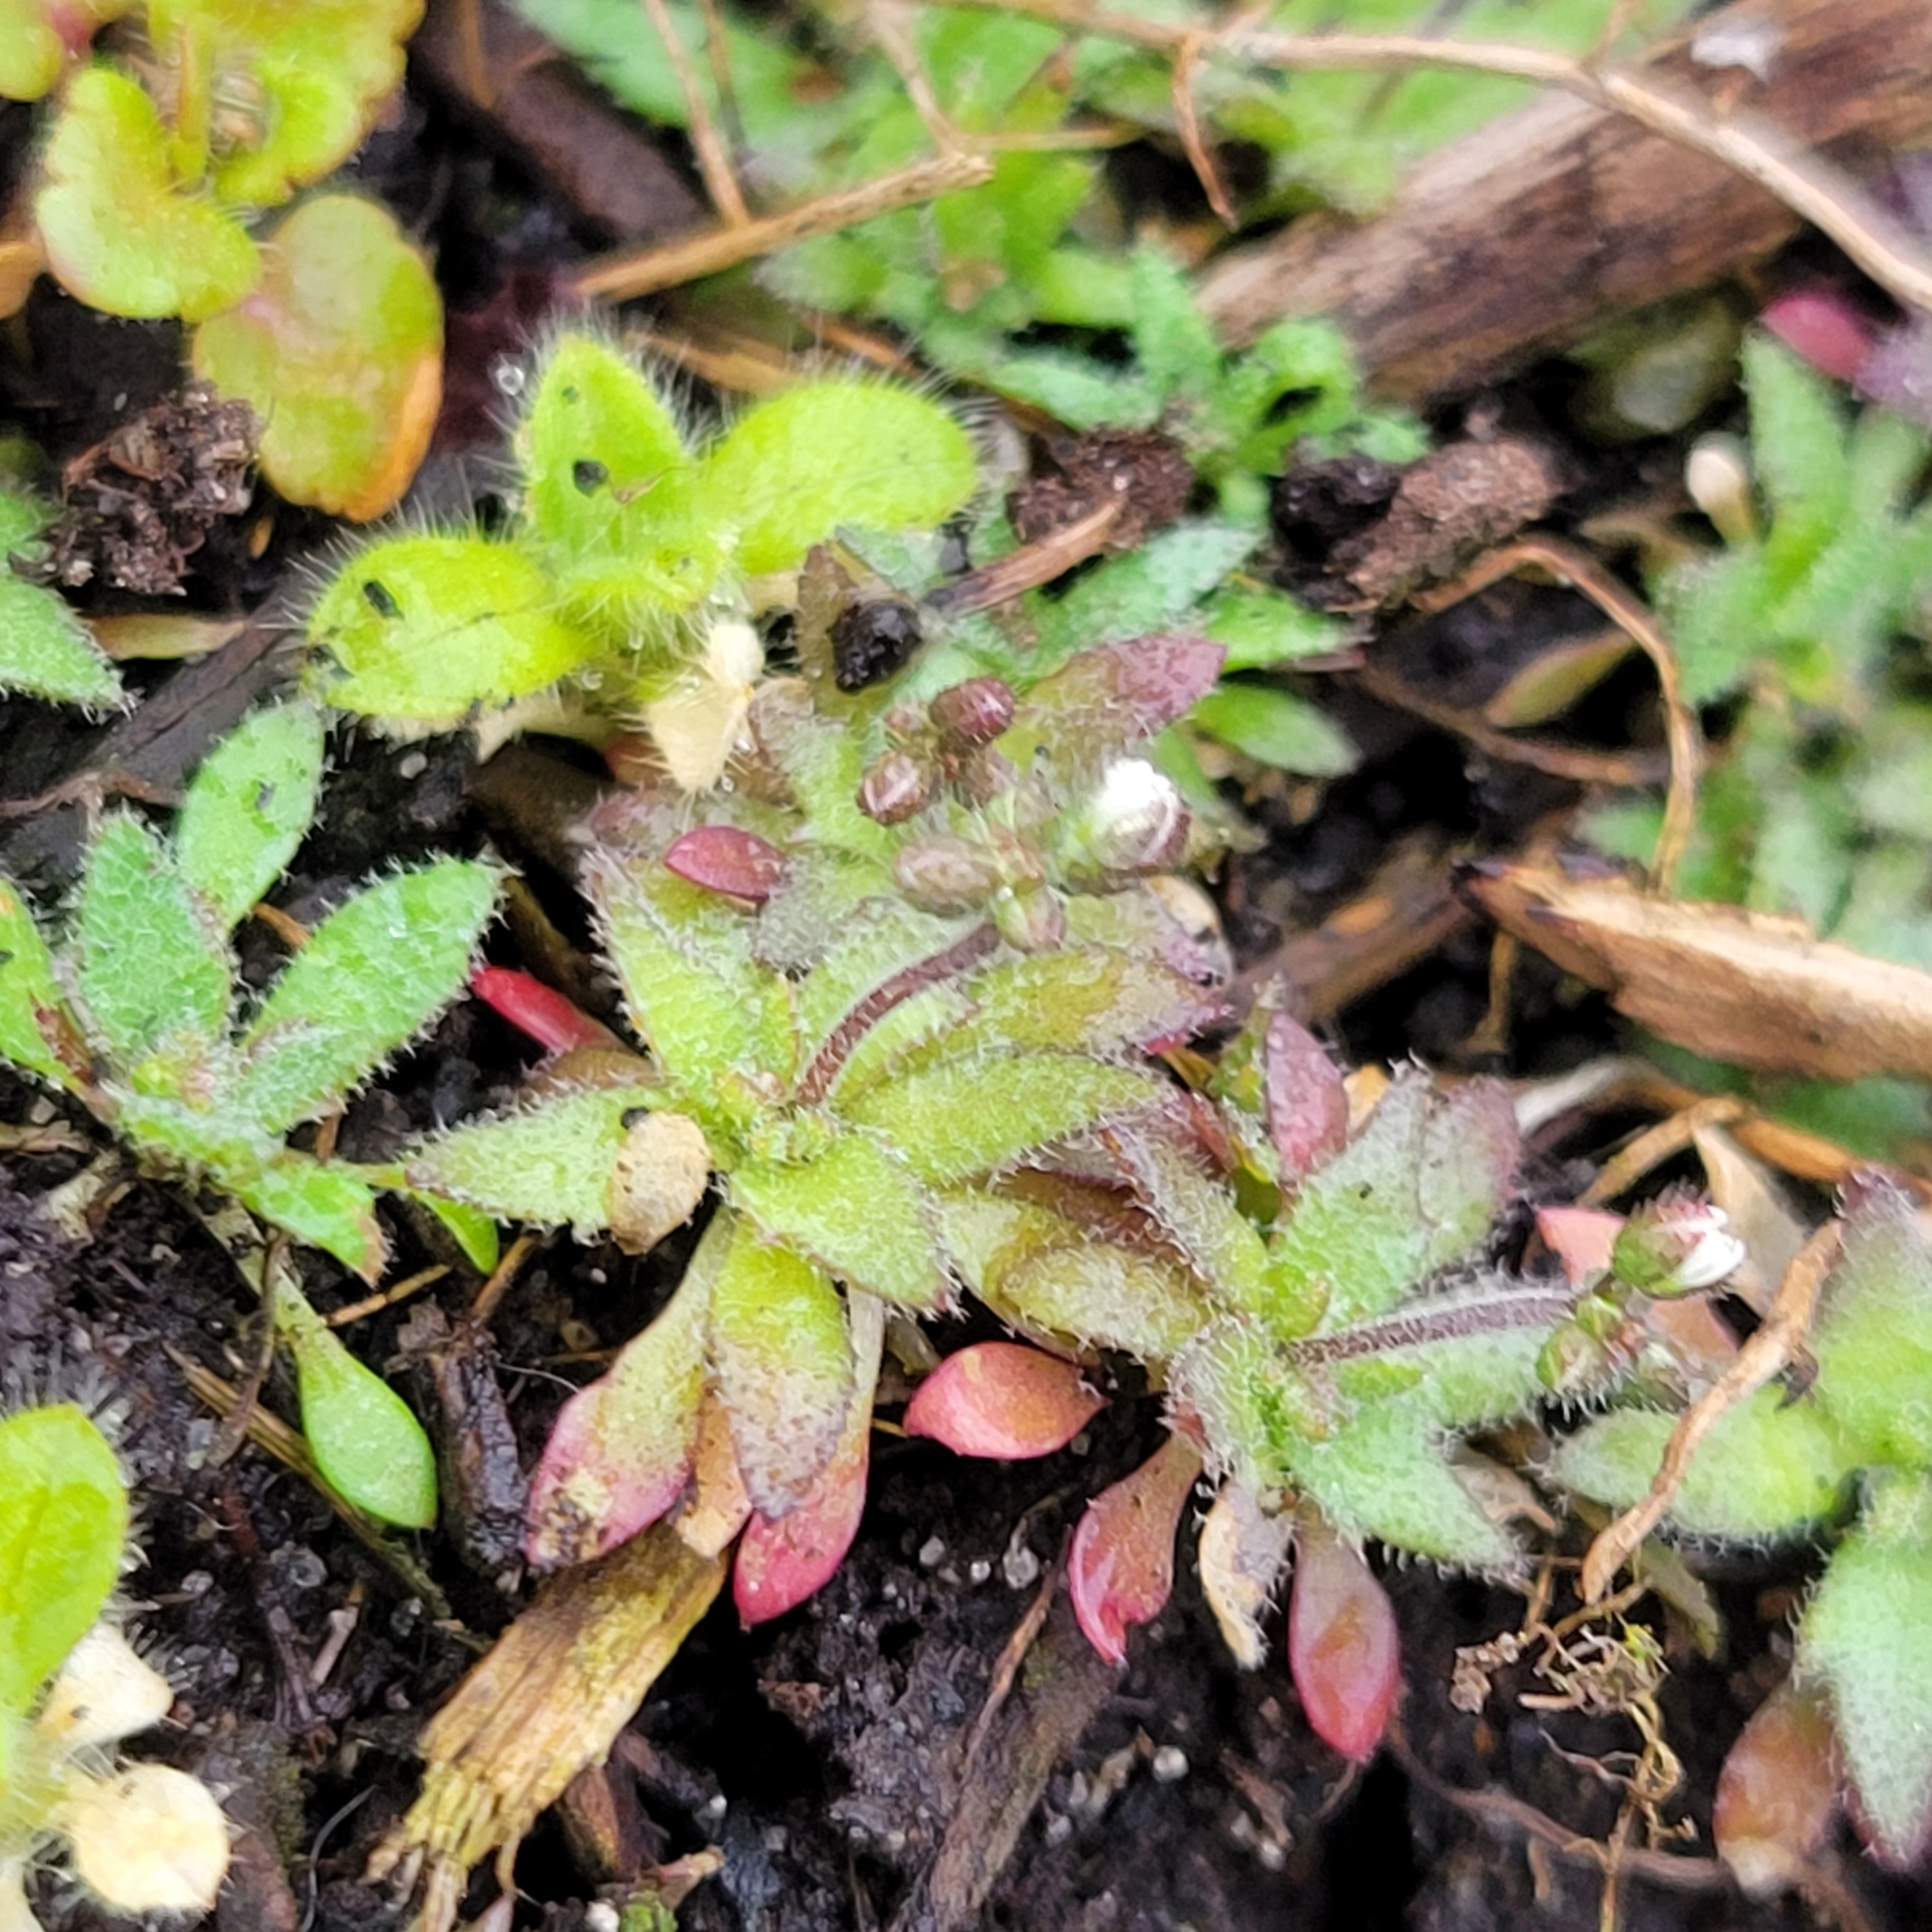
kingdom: Plantae
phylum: Tracheophyta
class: Magnoliopsida
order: Brassicales
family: Brassicaceae
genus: Draba
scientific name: Draba verna
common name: Spring draba
